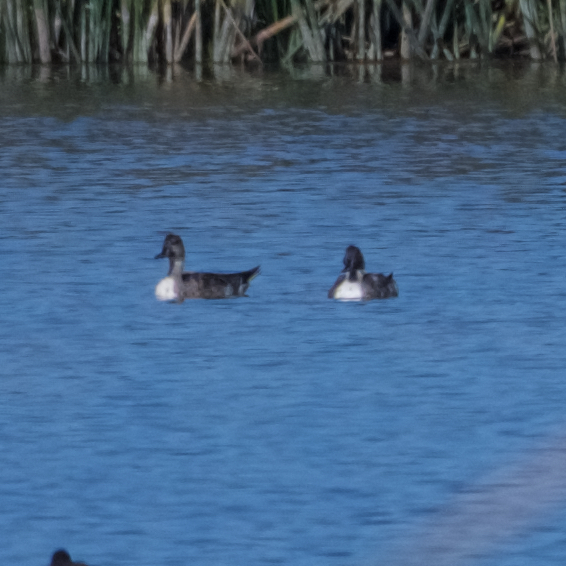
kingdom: Animalia
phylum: Chordata
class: Aves
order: Anseriformes
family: Anatidae
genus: Anas
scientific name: Anas acuta
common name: Northern pintail
